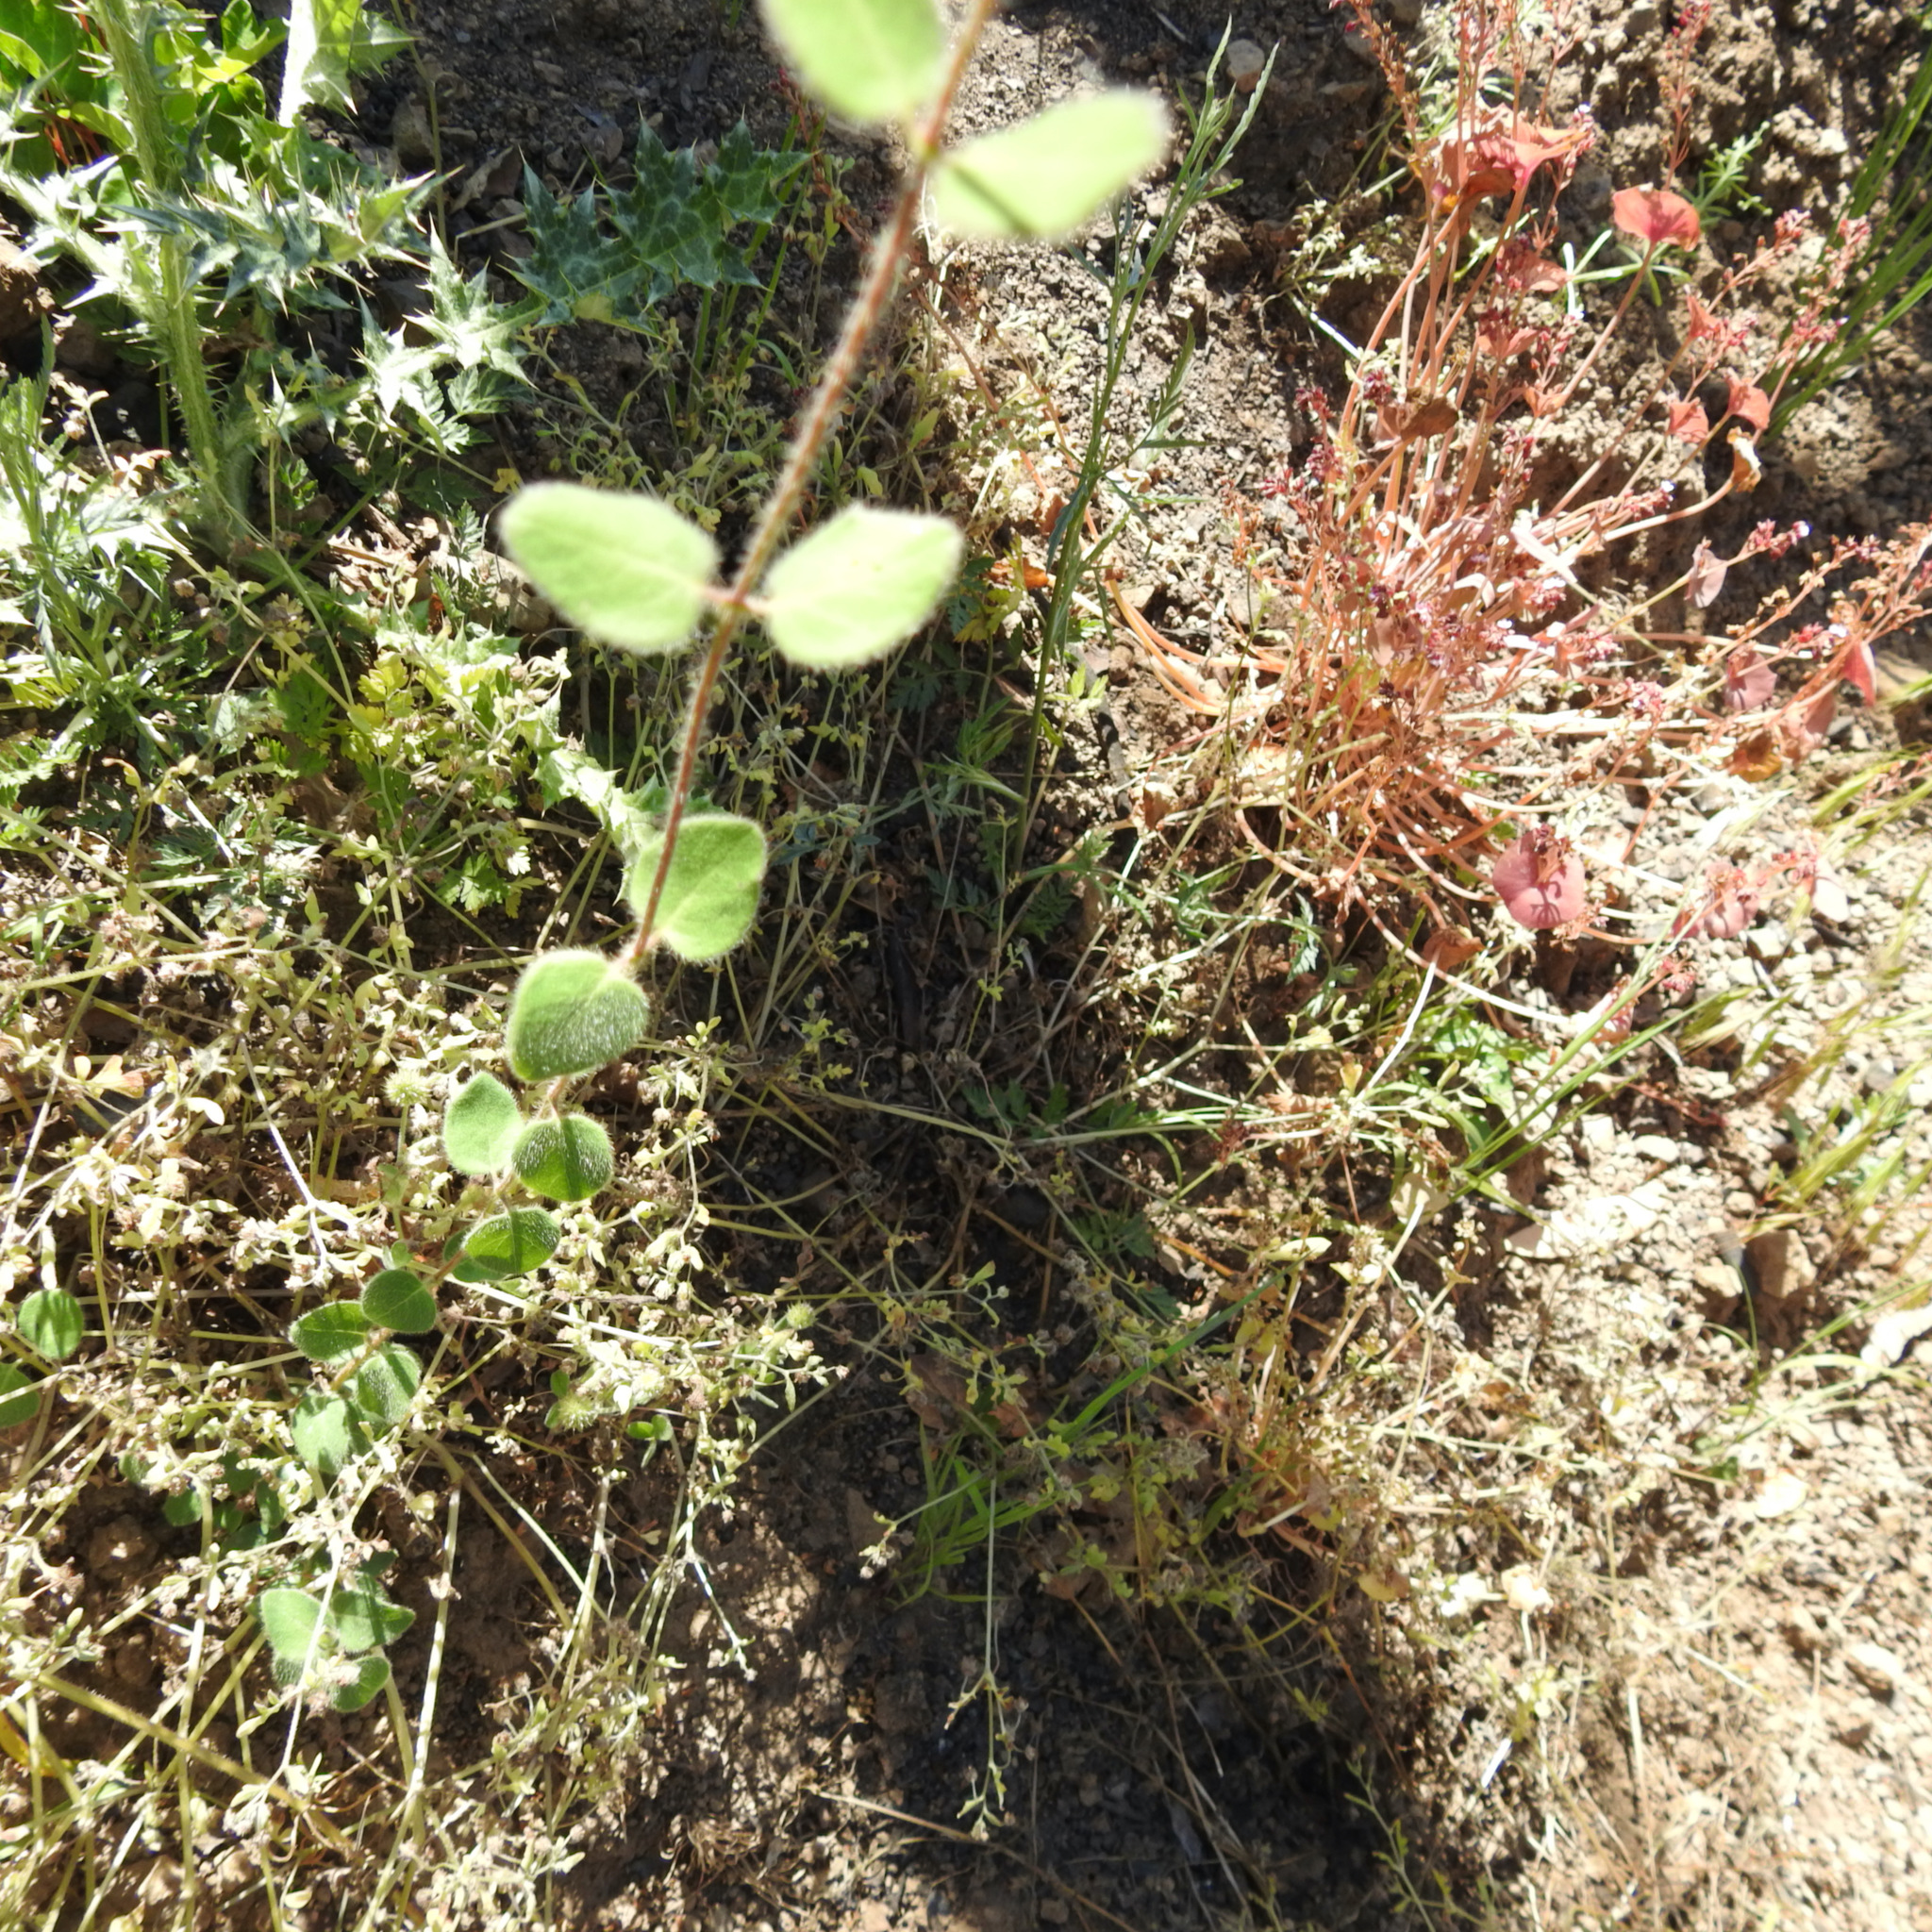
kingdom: Plantae
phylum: Tracheophyta
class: Magnoliopsida
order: Dipsacales
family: Caprifoliaceae
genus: Lonicera
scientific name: Lonicera hispidula
